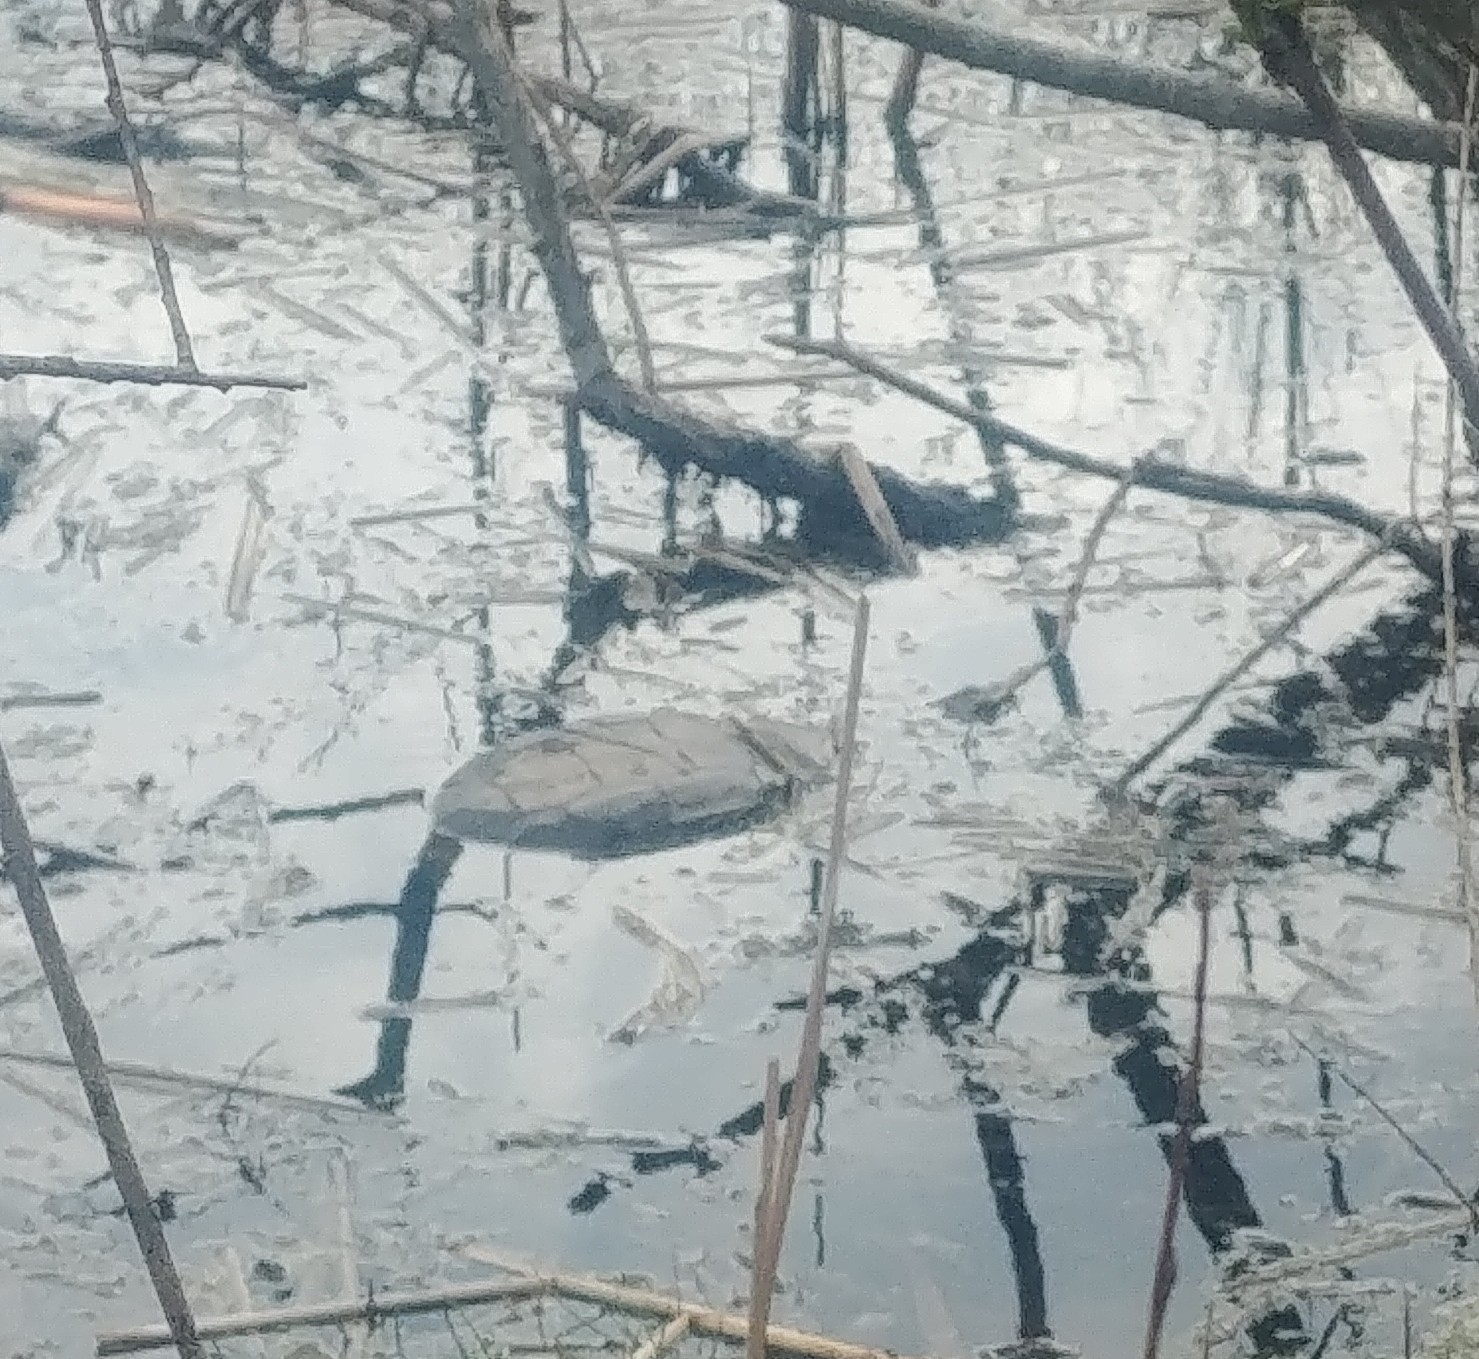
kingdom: Animalia
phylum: Chordata
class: Testudines
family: Chelydridae
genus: Chelydra
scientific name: Chelydra serpentina
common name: Common snapping turtle
